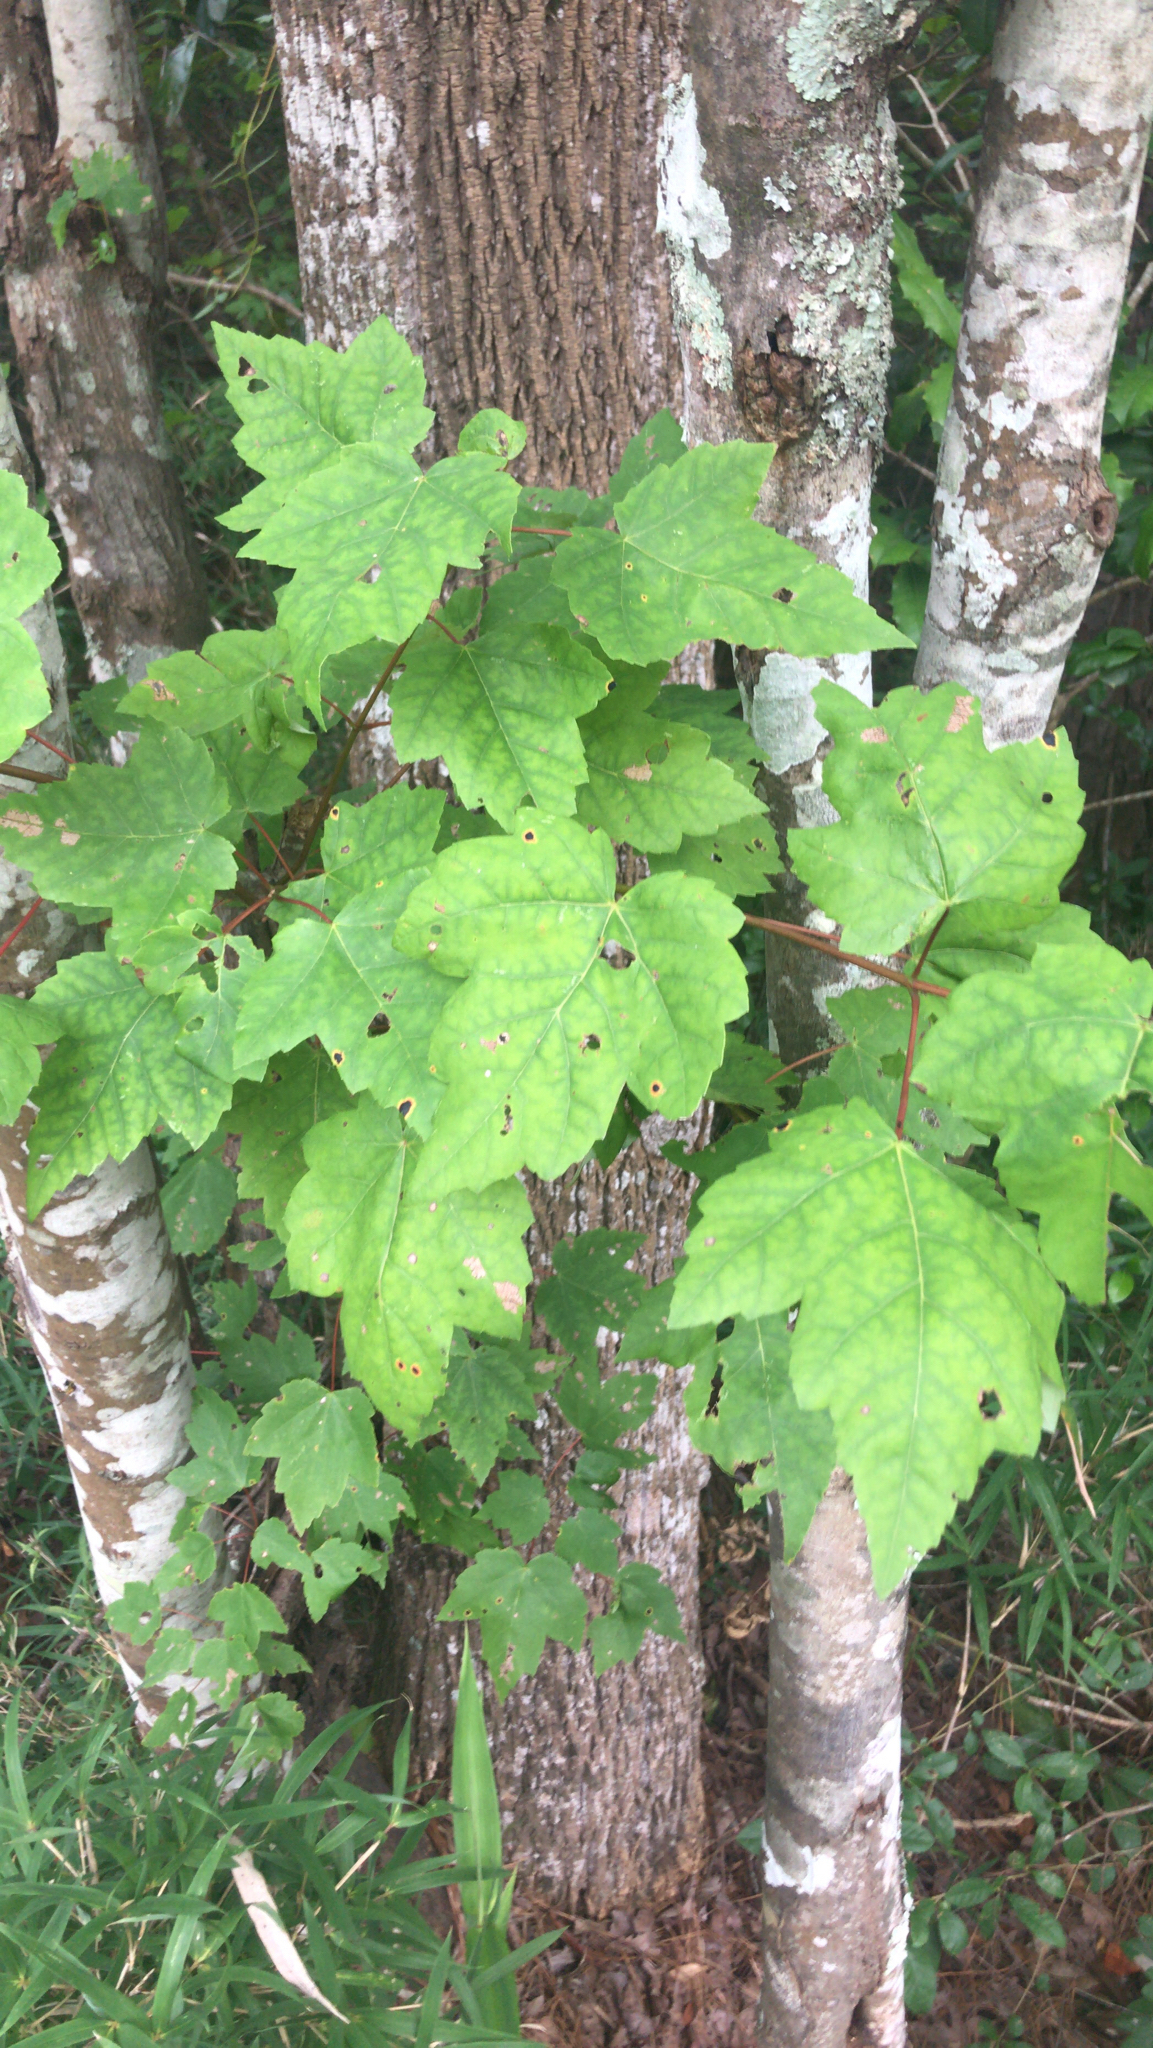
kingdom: Plantae
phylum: Tracheophyta
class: Magnoliopsida
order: Sapindales
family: Sapindaceae
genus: Acer
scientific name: Acer rubrum
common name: Red maple
